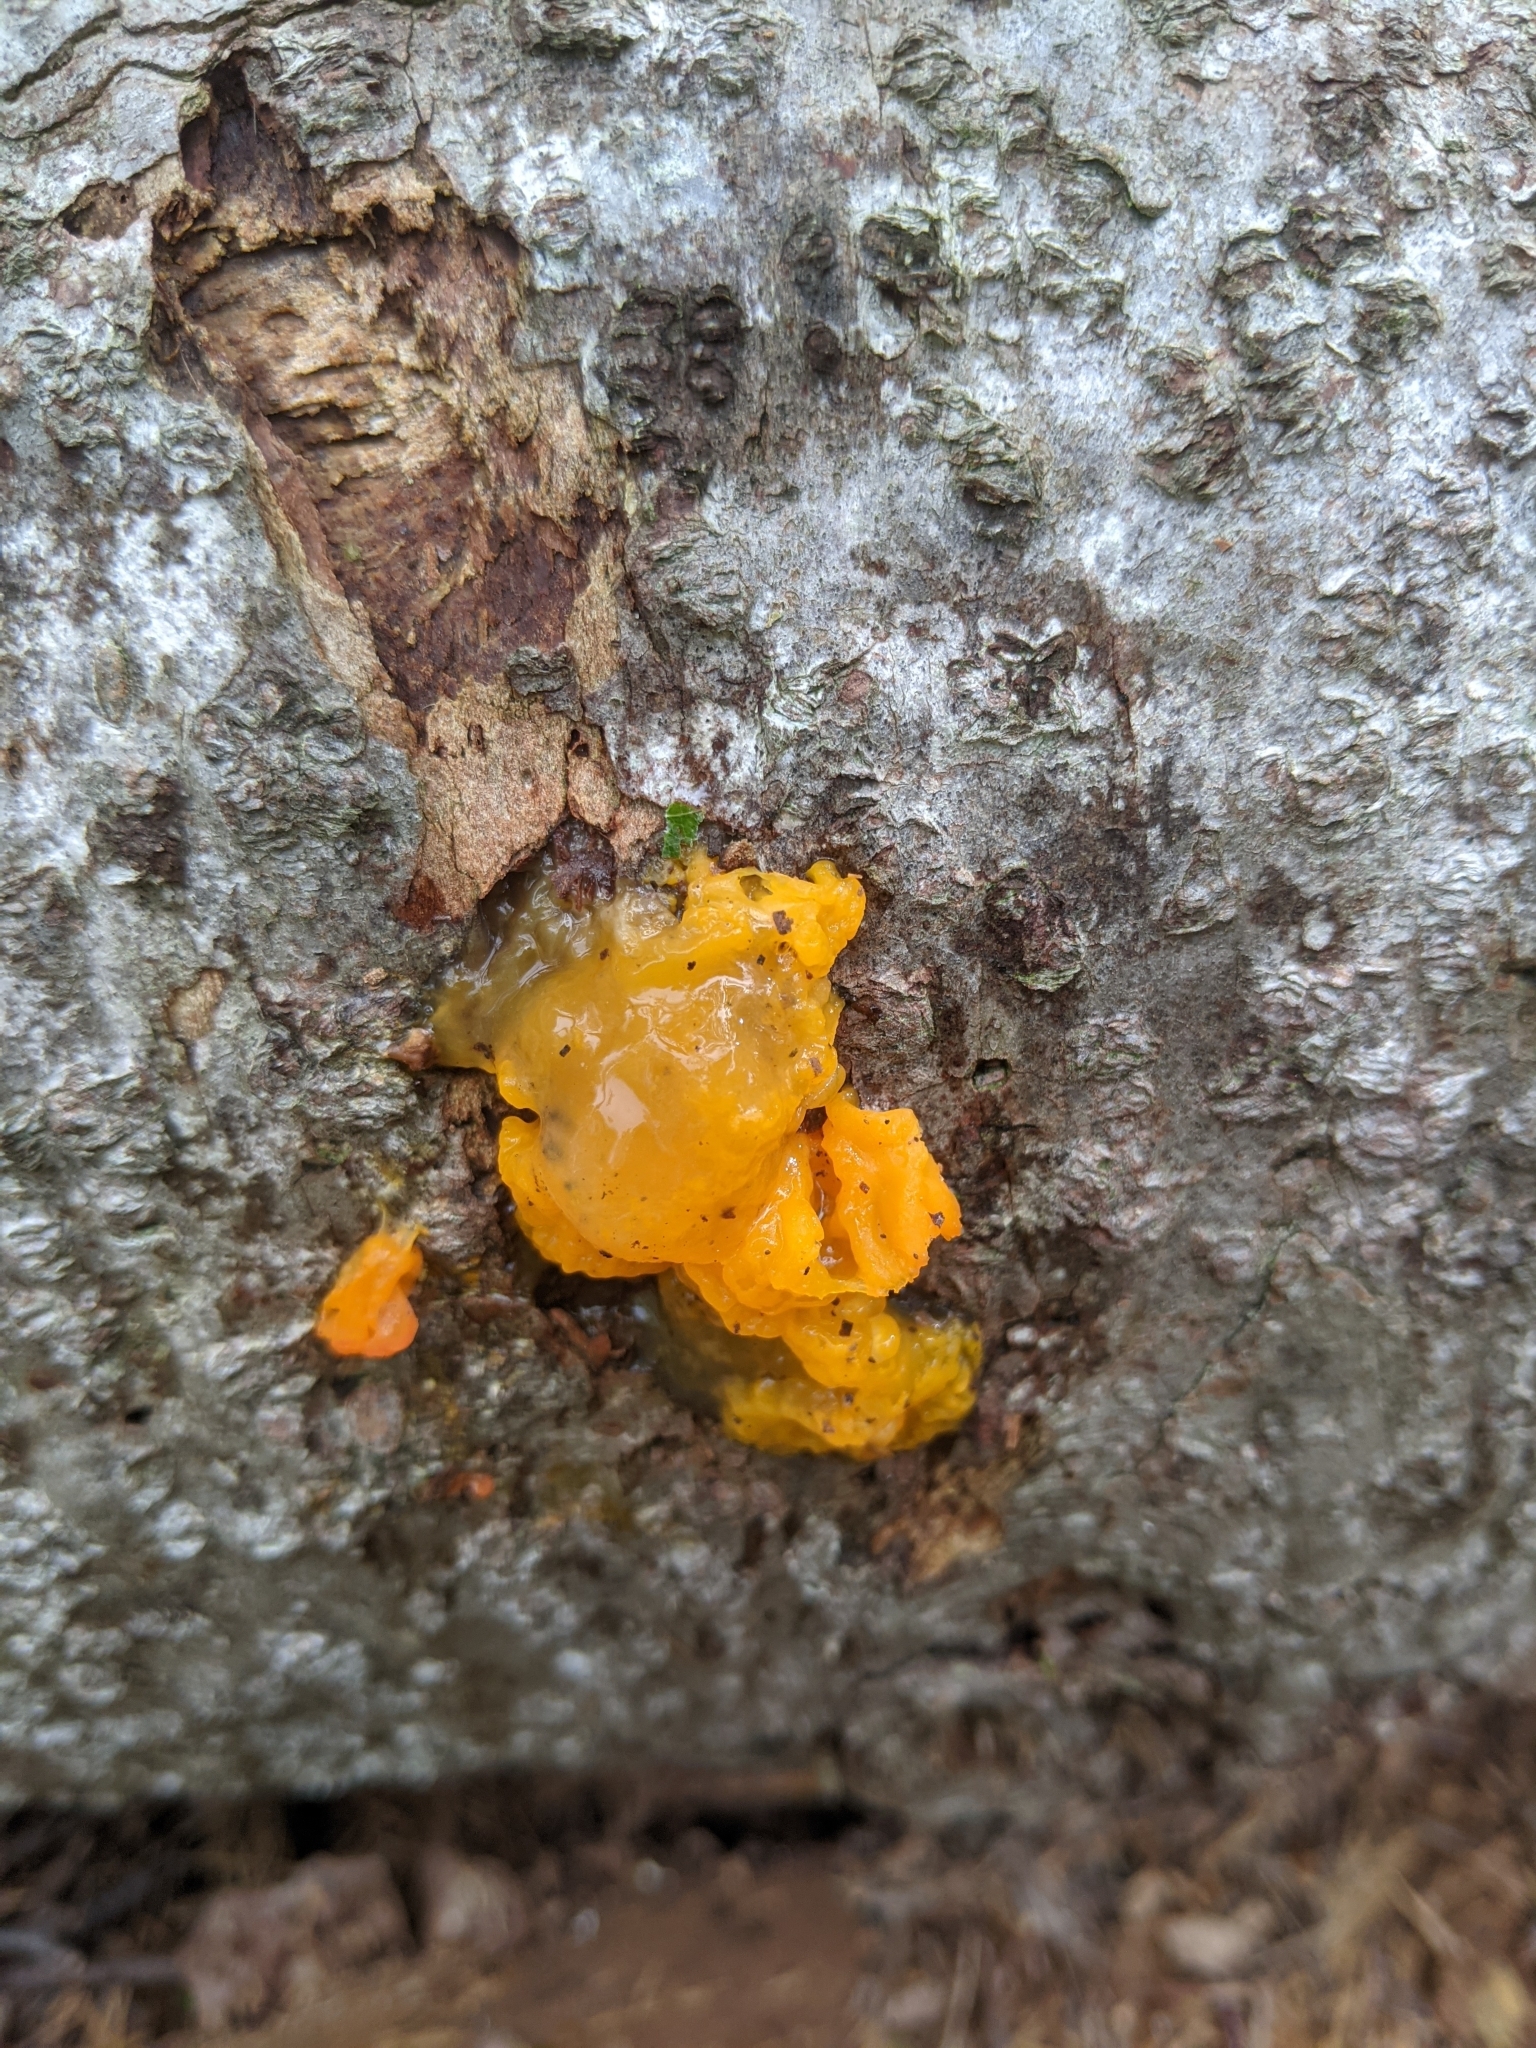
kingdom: Fungi
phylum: Basidiomycota
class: Dacrymycetes
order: Dacrymycetales
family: Dacrymycetaceae
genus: Dacrymyces
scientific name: Dacrymyces chrysospermus
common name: Orange jelly spot
